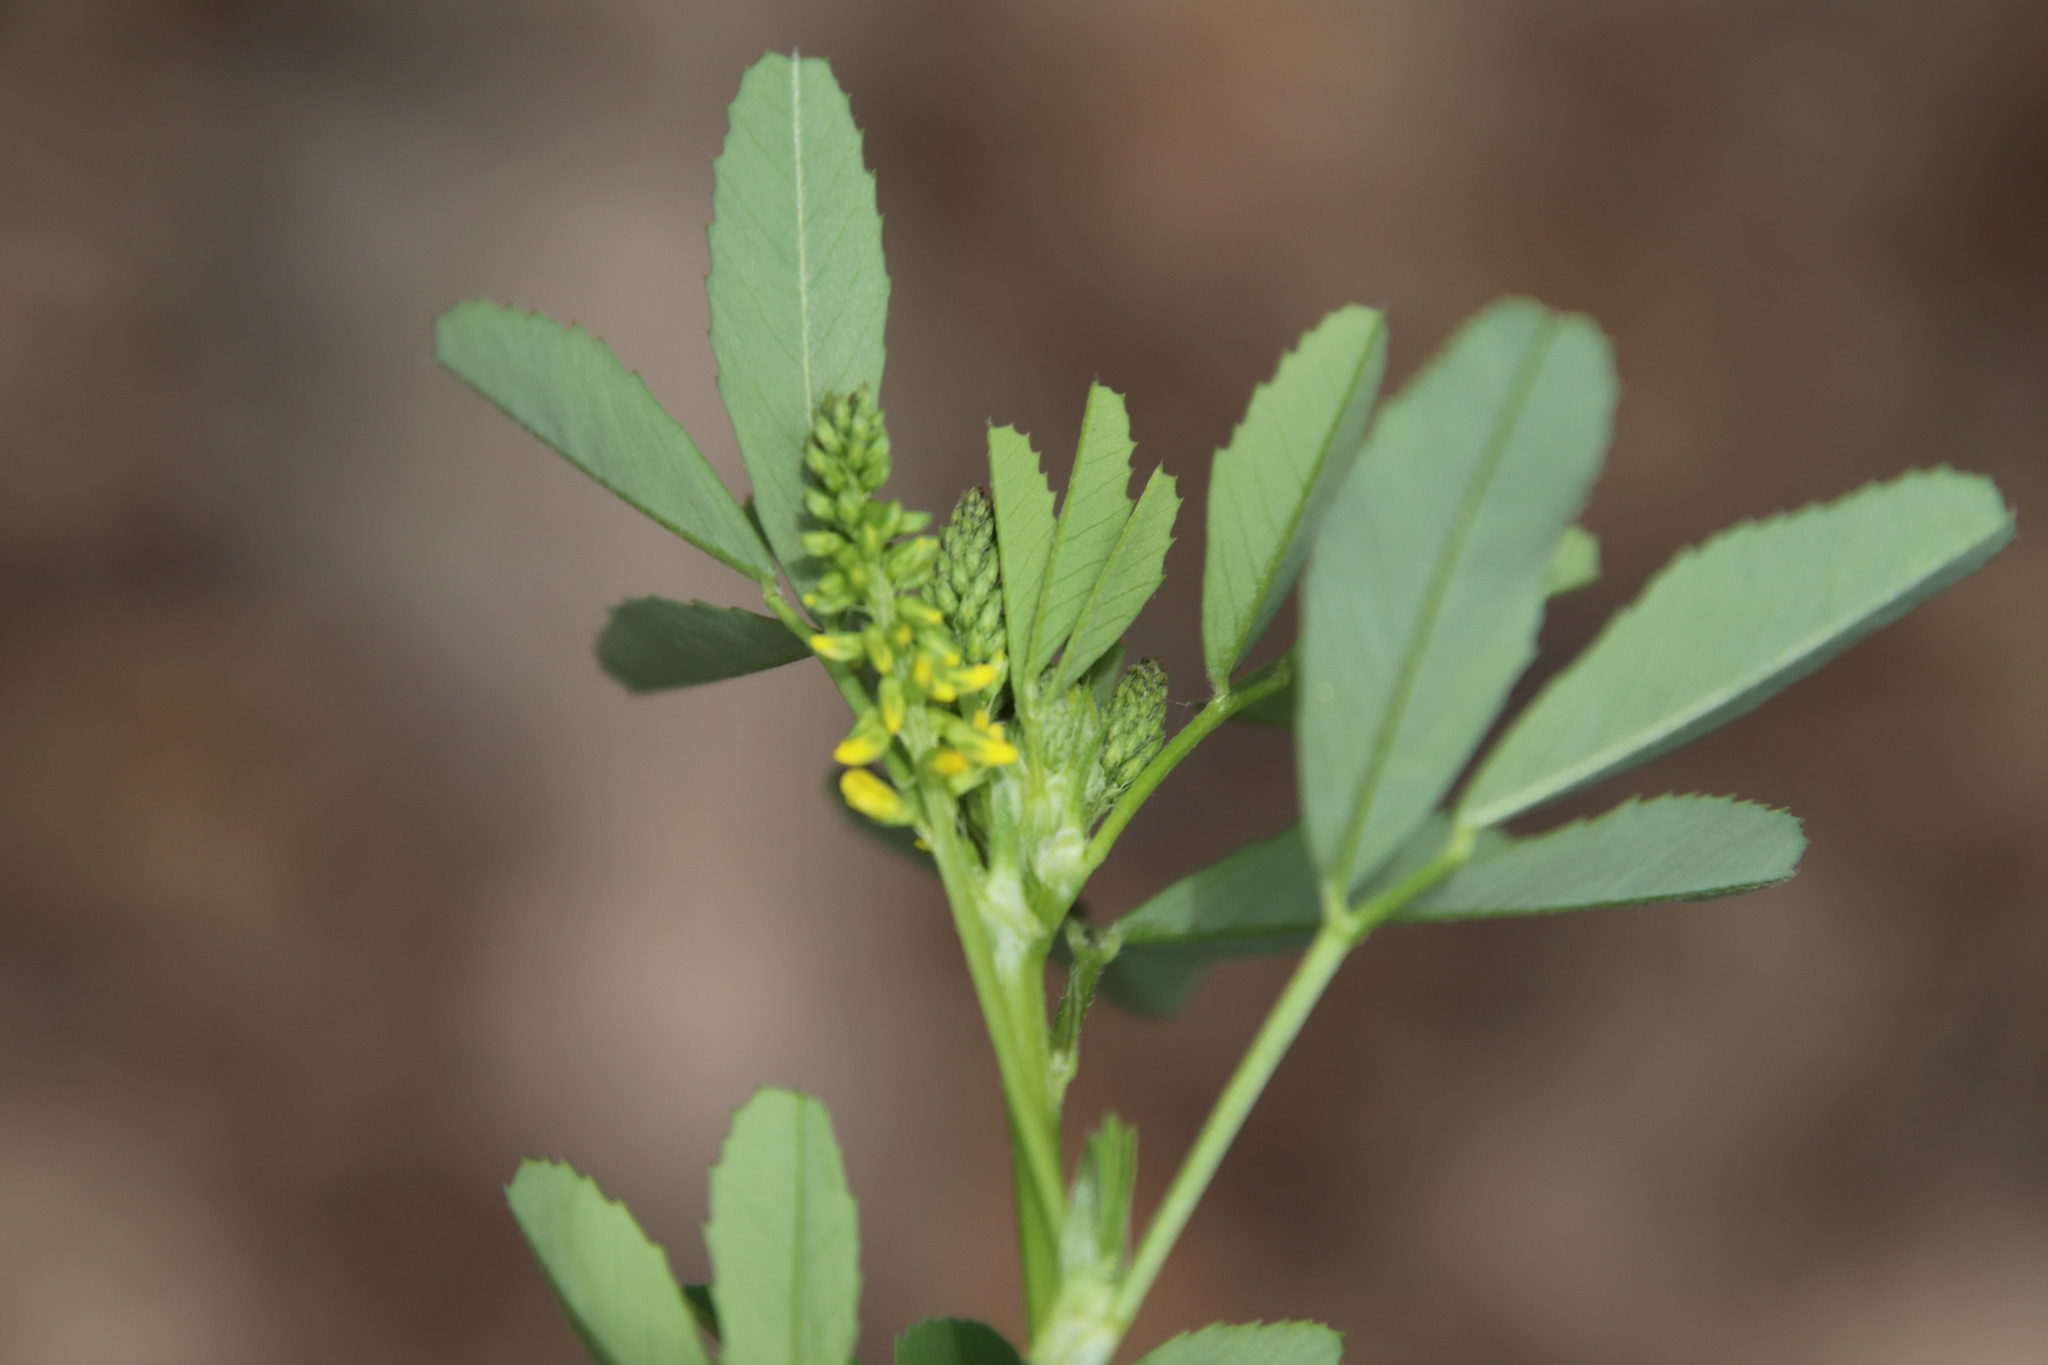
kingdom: Plantae
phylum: Tracheophyta
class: Magnoliopsida
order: Fabales
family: Fabaceae
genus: Melilotus
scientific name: Melilotus indicus
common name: Small melilot
